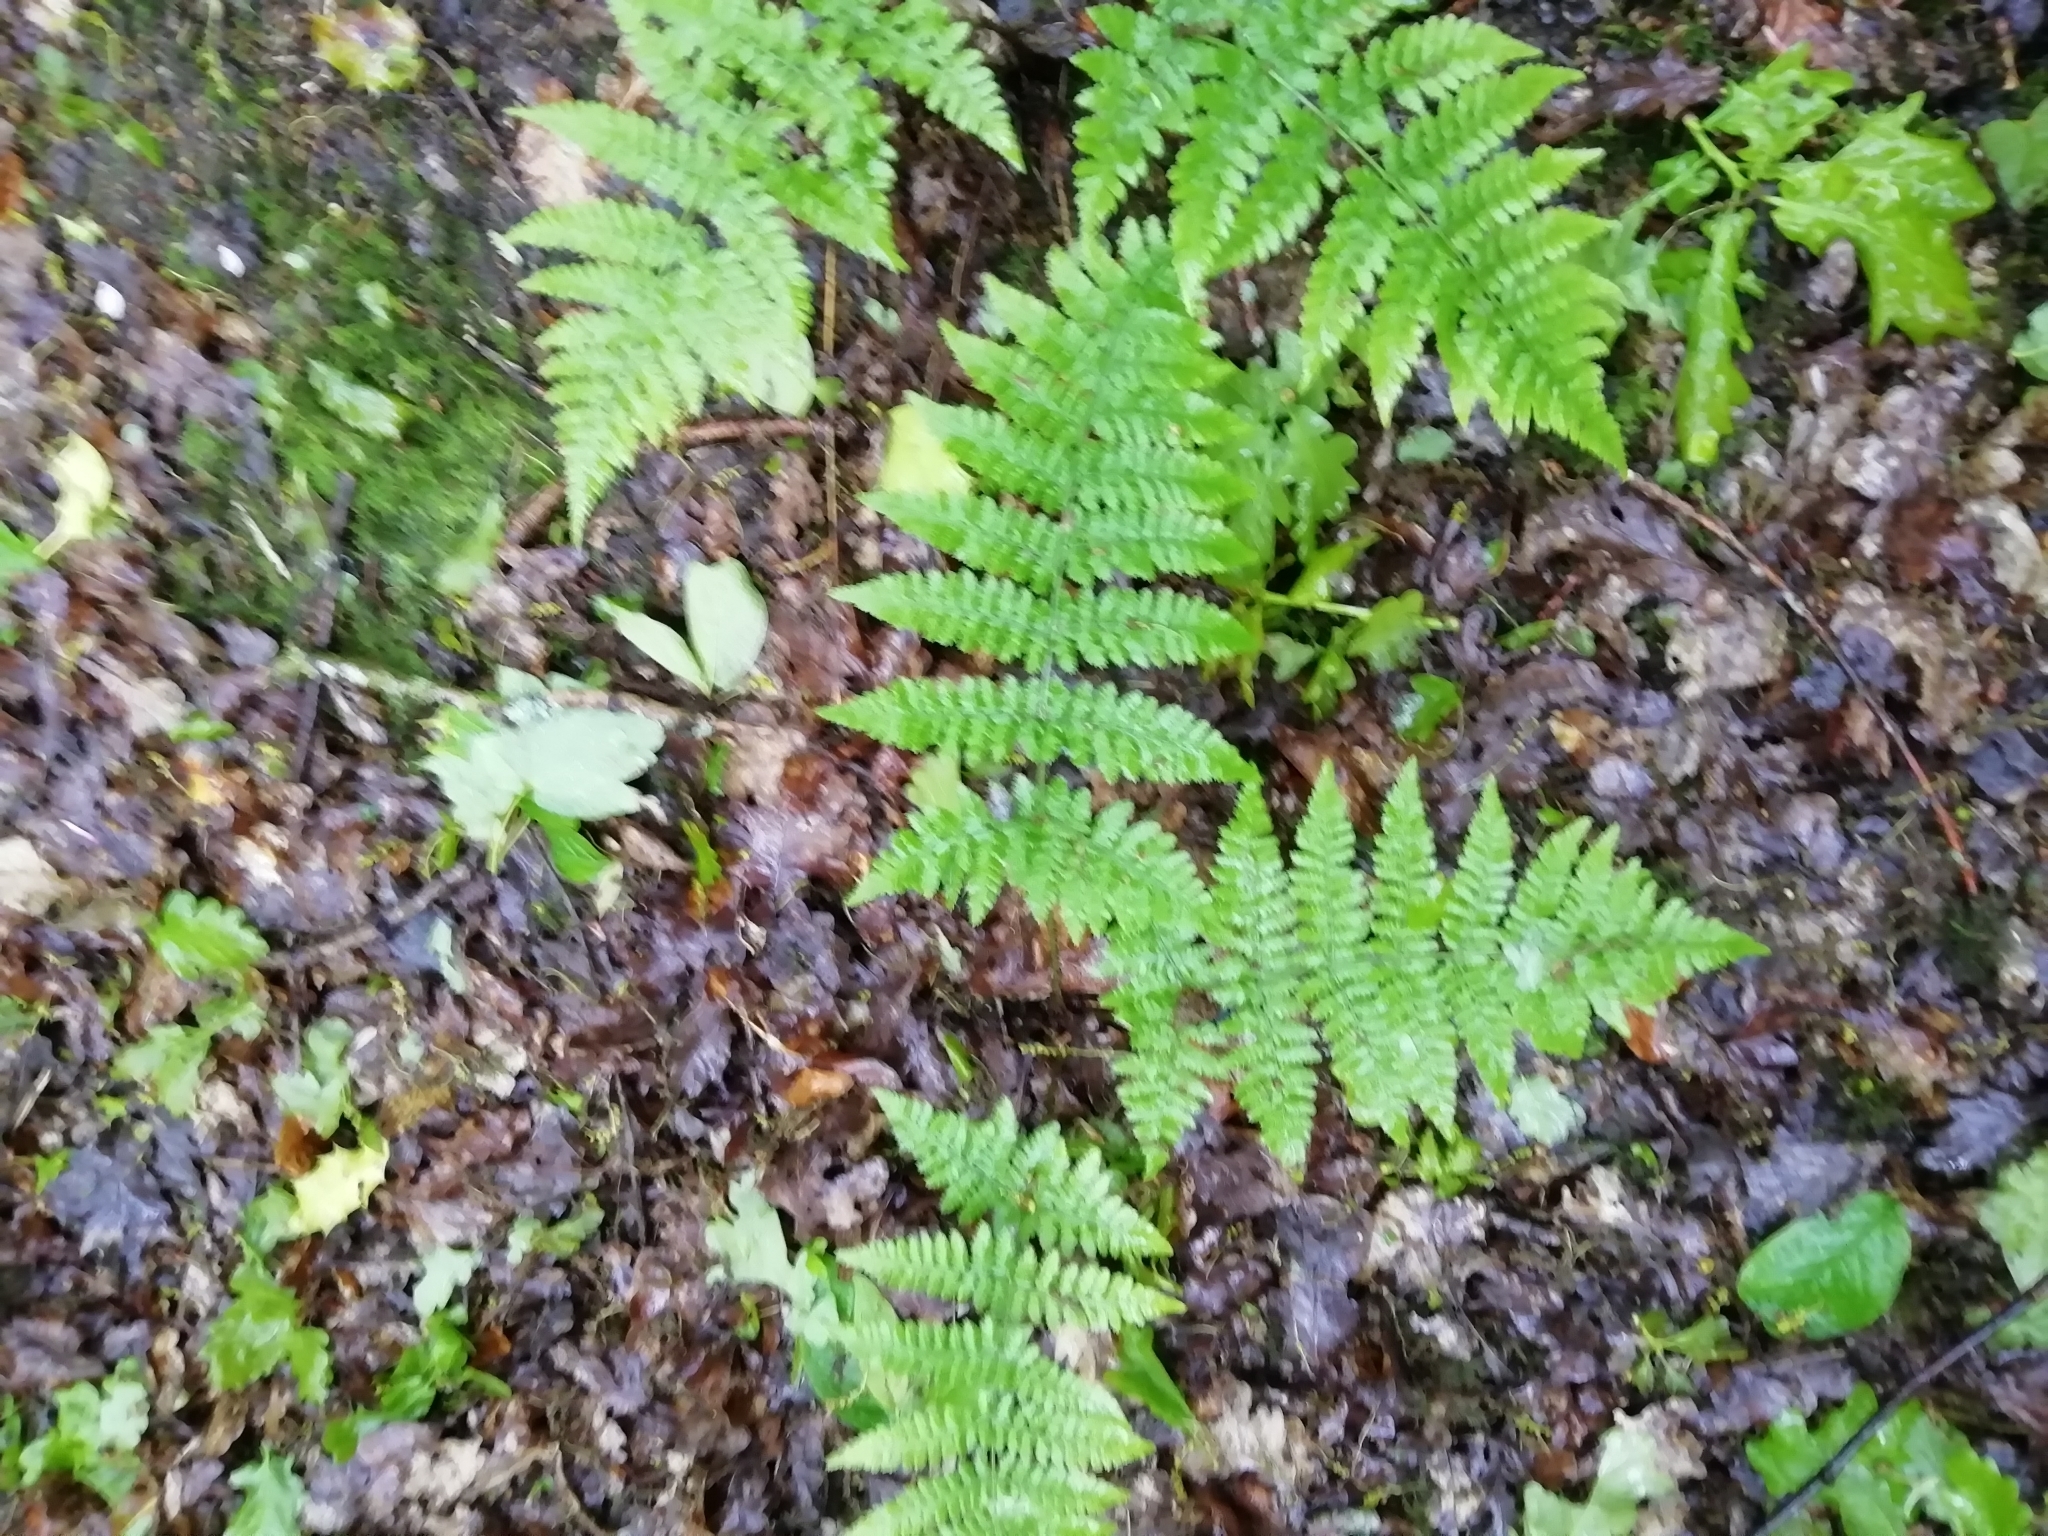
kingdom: Plantae
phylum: Tracheophyta
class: Polypodiopsida
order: Polypodiales
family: Athyriaceae
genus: Athyrium
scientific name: Athyrium filix-femina
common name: Lady fern
